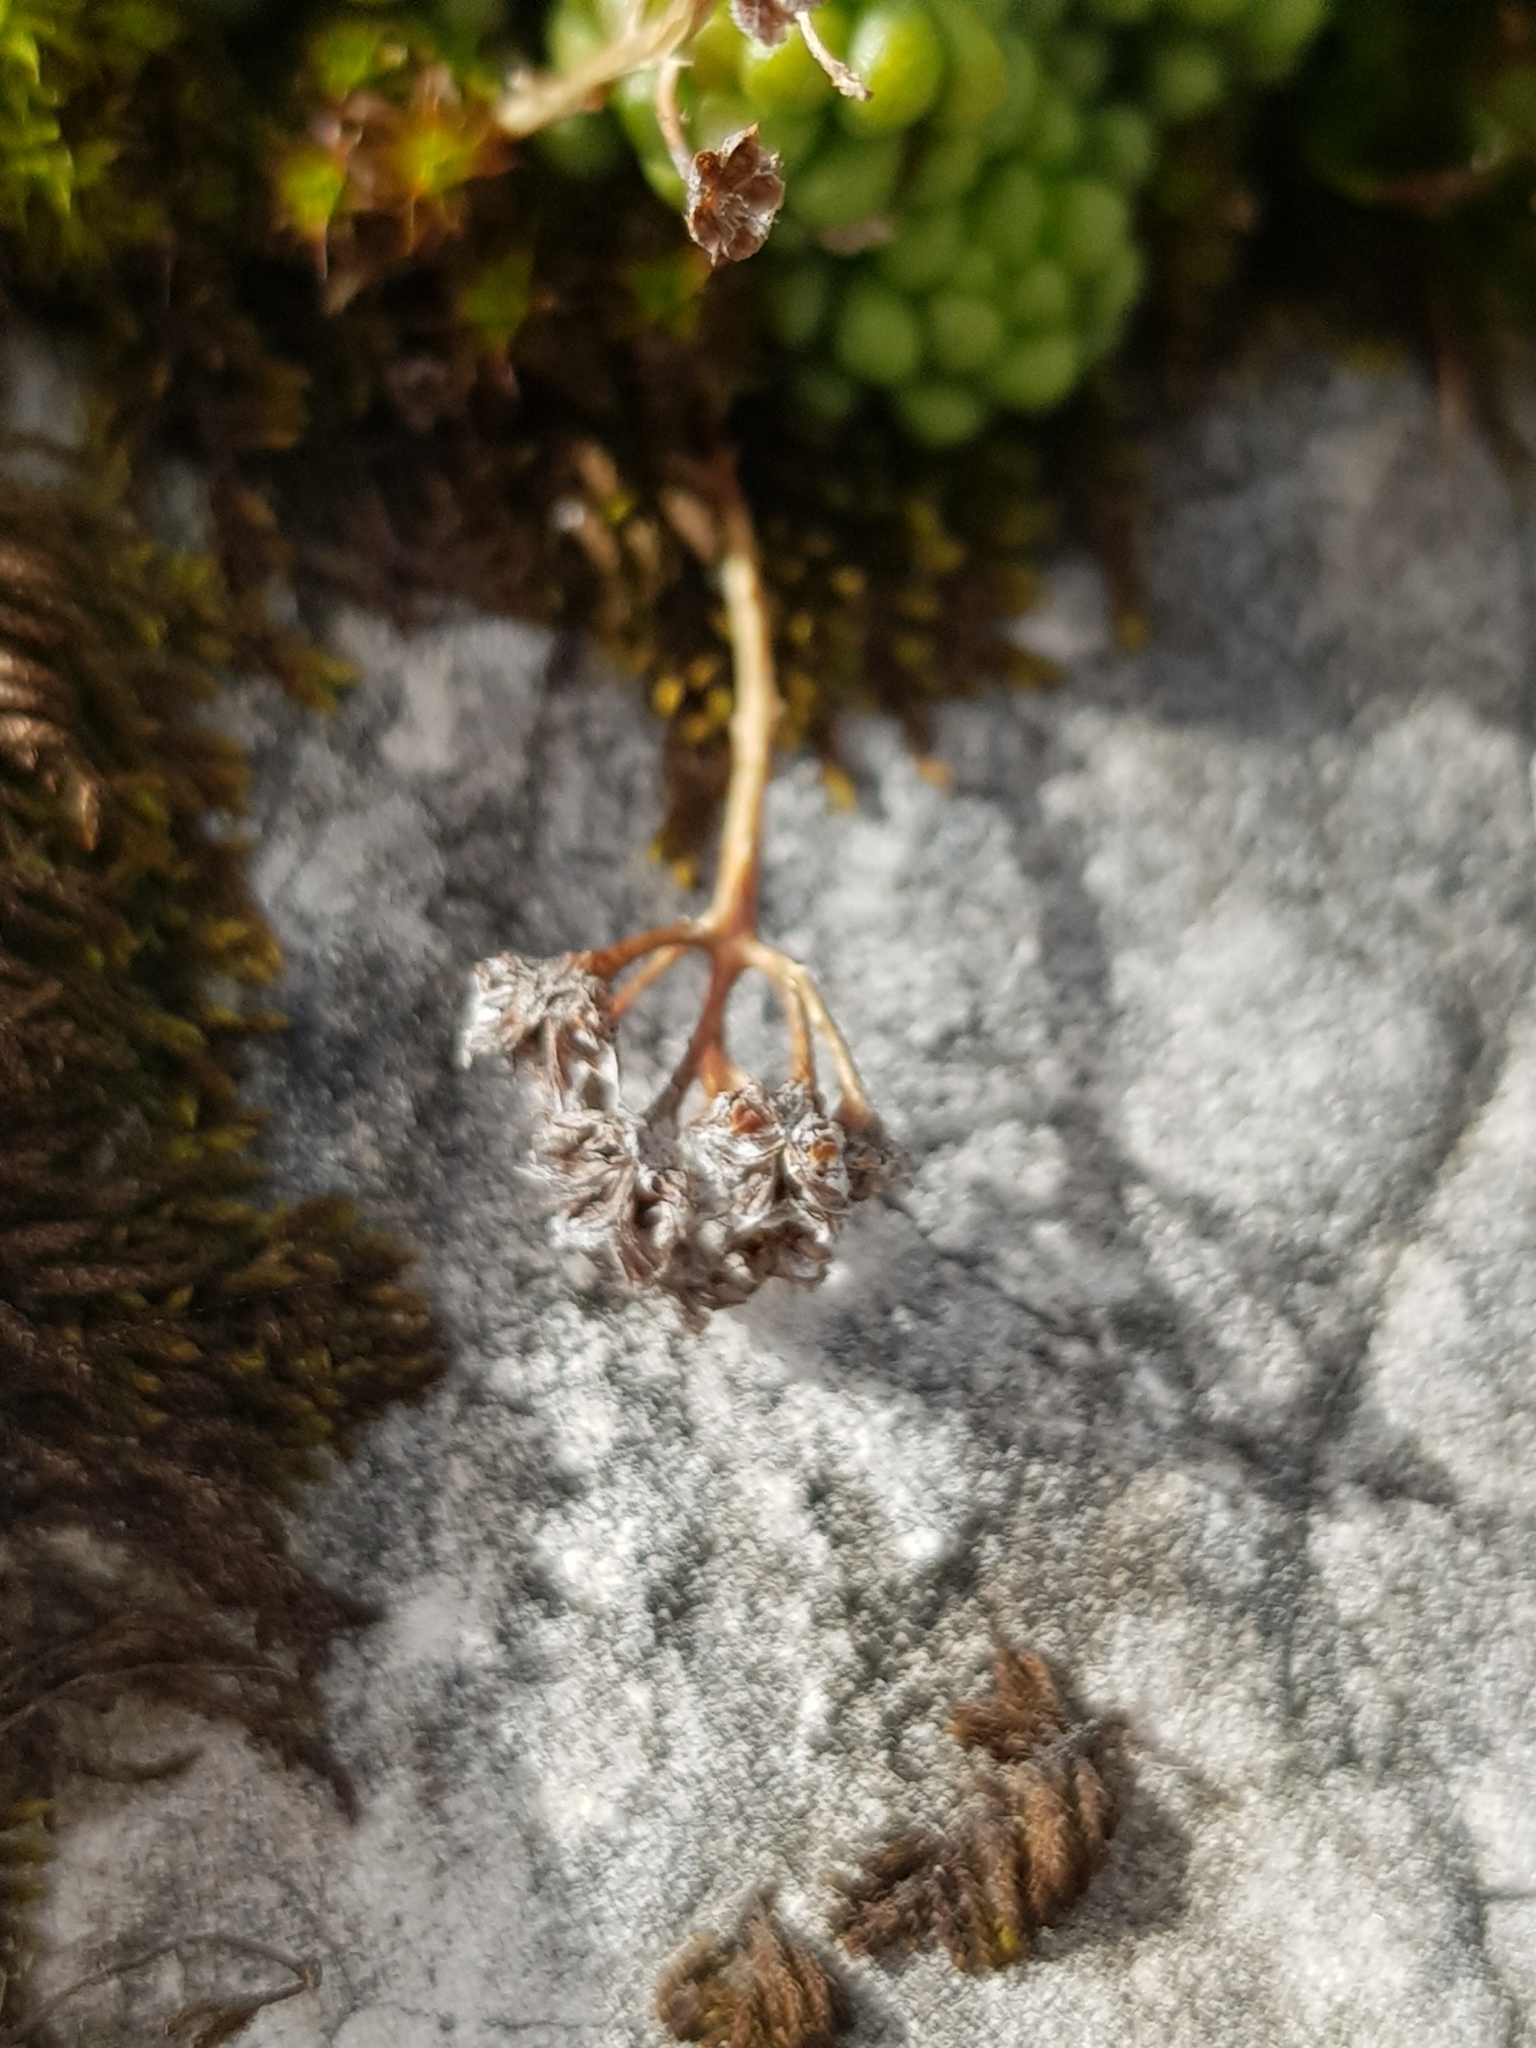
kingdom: Plantae
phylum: Tracheophyta
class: Magnoliopsida
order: Saxifragales
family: Crassulaceae
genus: Sedum
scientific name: Sedum annuum
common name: Annual stonecrop
